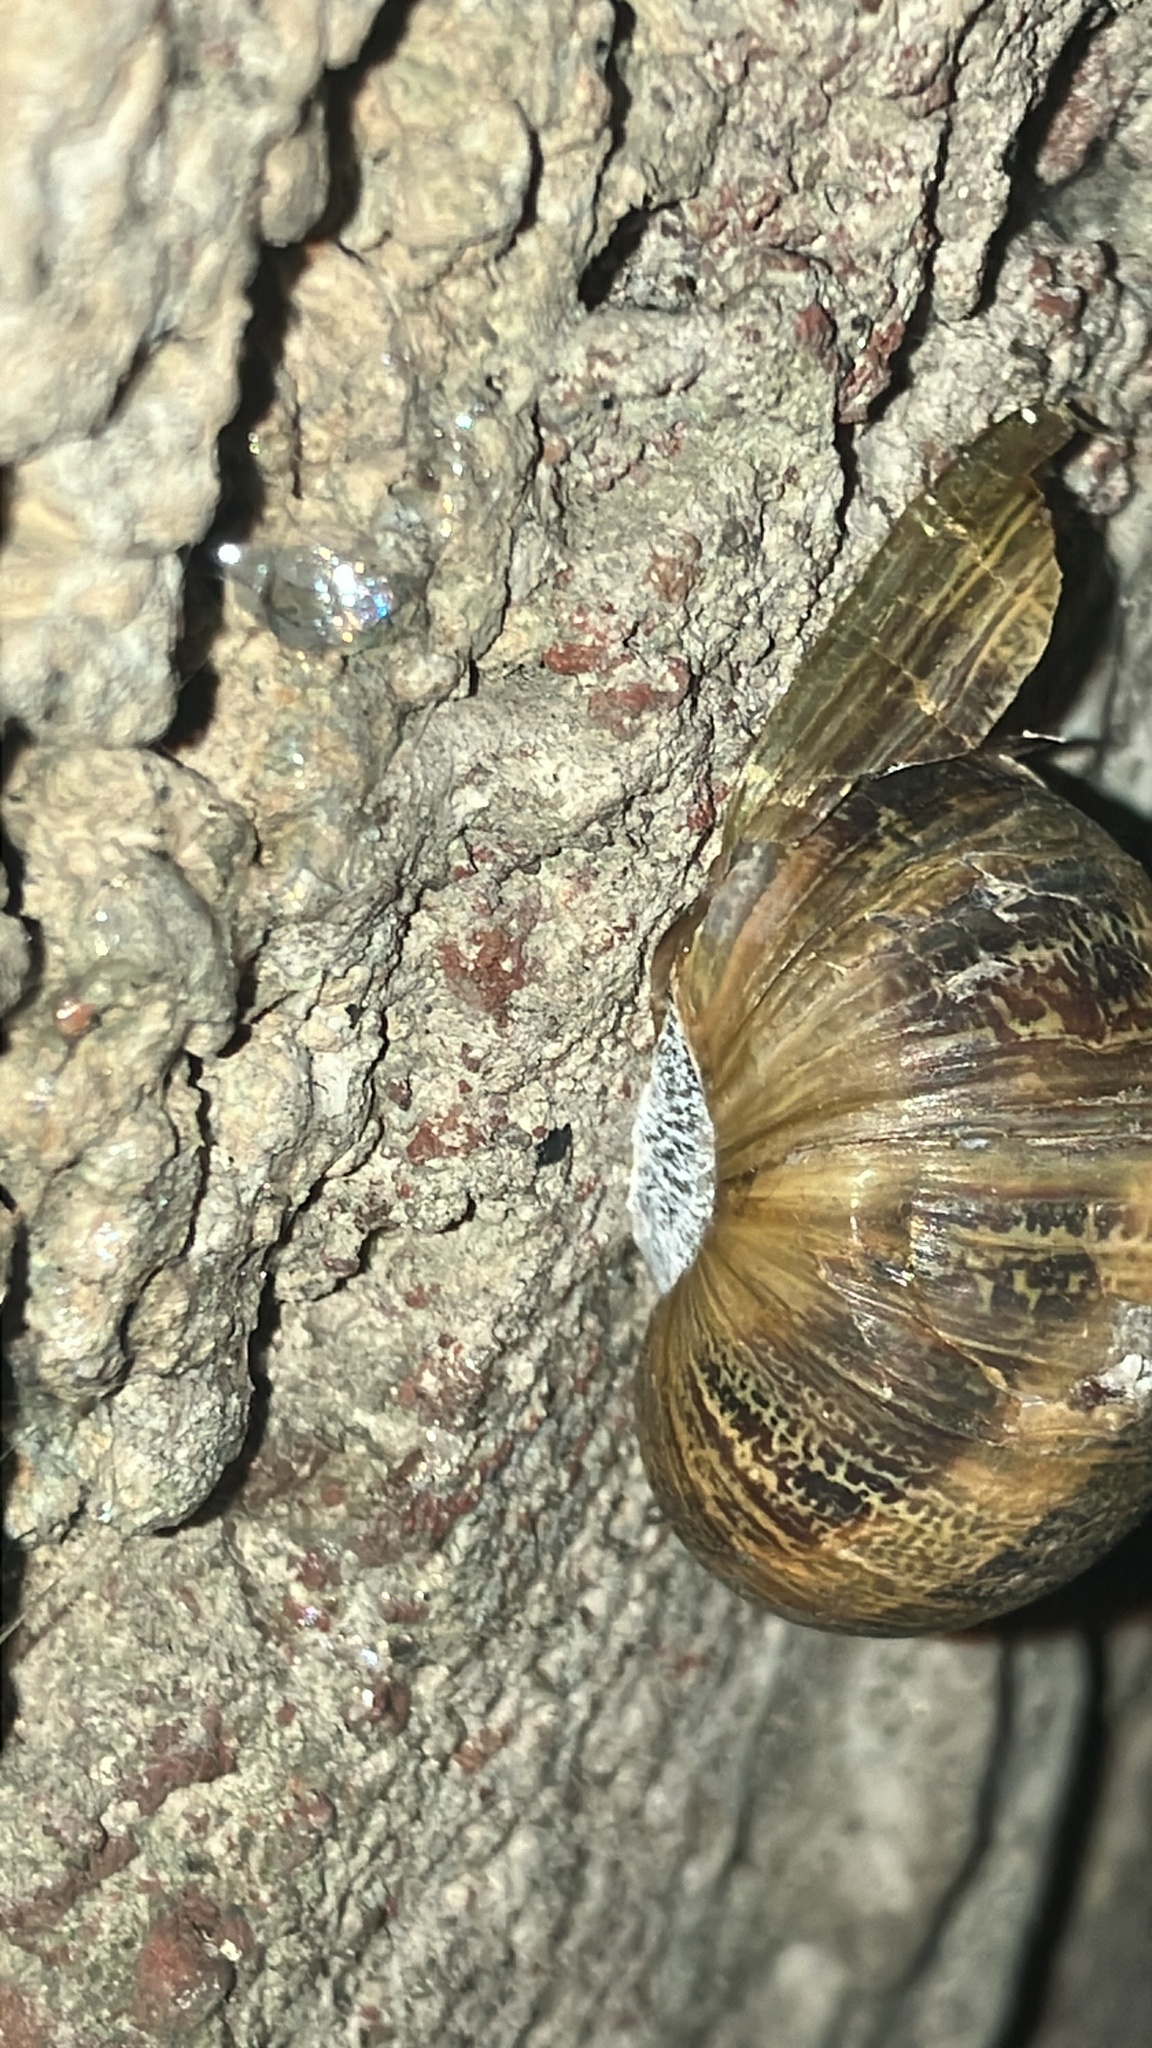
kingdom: Animalia
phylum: Mollusca
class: Gastropoda
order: Stylommatophora
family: Helicidae
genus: Cornu
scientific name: Cornu aspersum
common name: Brown garden snail
